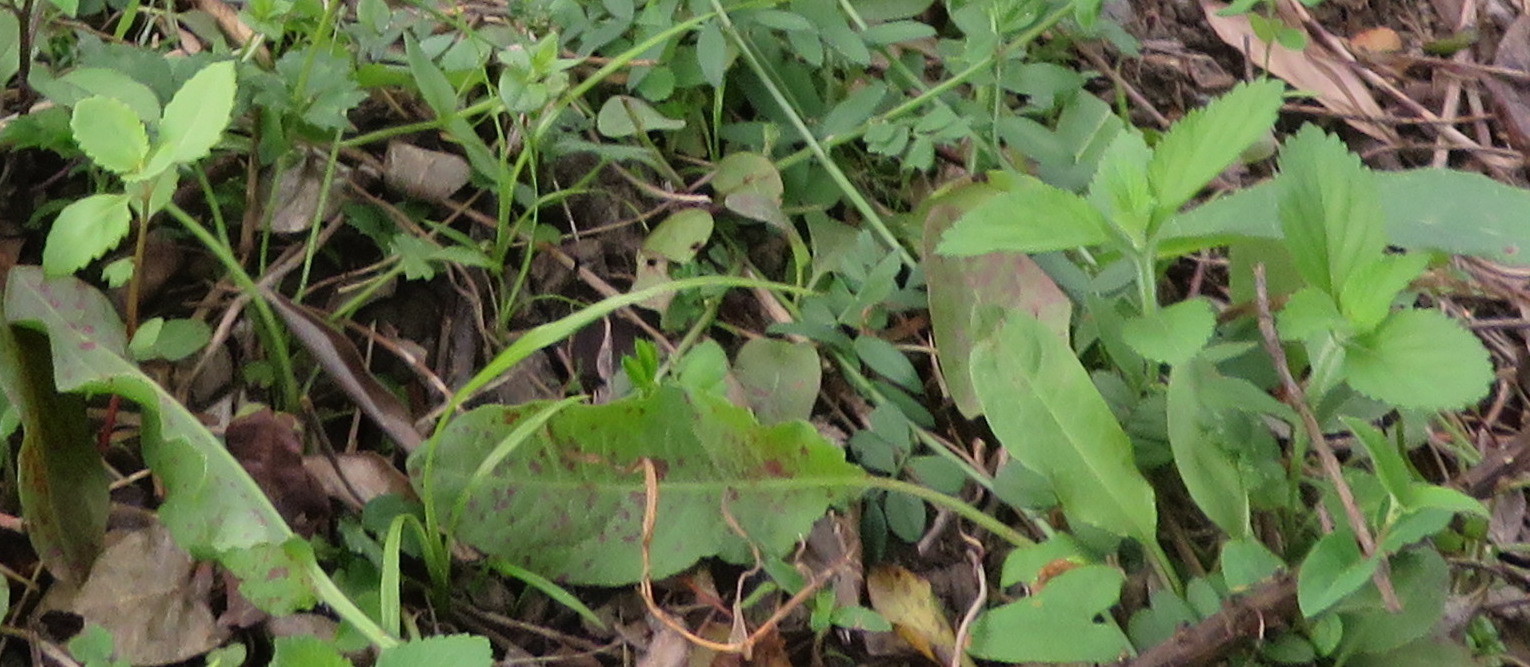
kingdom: Plantae
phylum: Tracheophyta
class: Liliopsida
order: Asparagales
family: Asparagaceae
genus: Cordyline
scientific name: Cordyline australis
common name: Cabbage-palm
